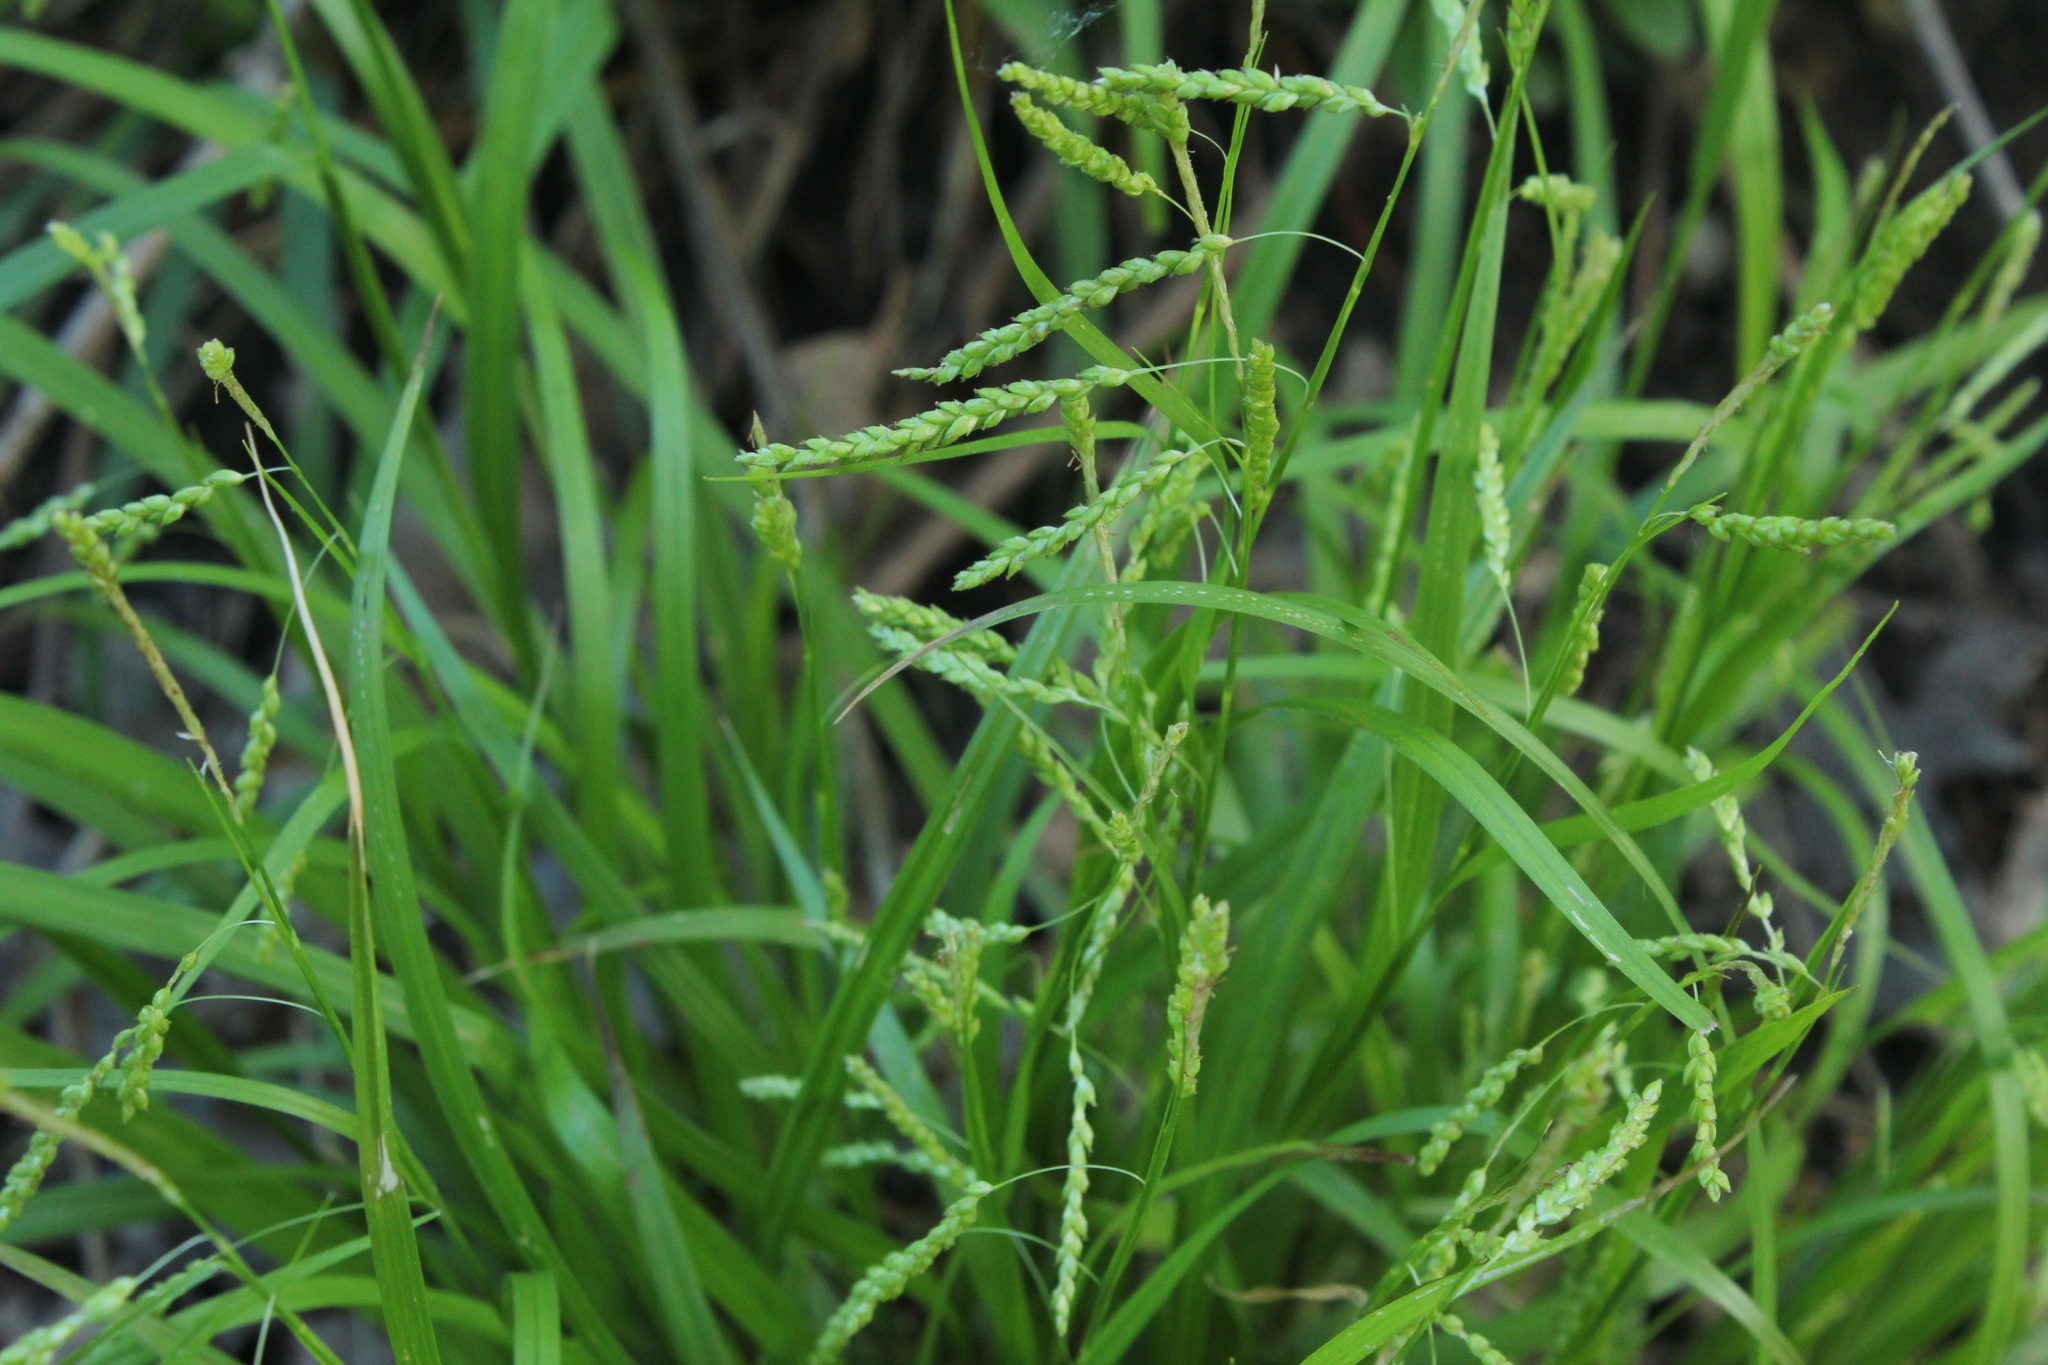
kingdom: Plantae
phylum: Tracheophyta
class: Liliopsida
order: Poales
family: Cyperaceae
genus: Carex
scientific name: Carex gracillima
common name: Graceful sedge
